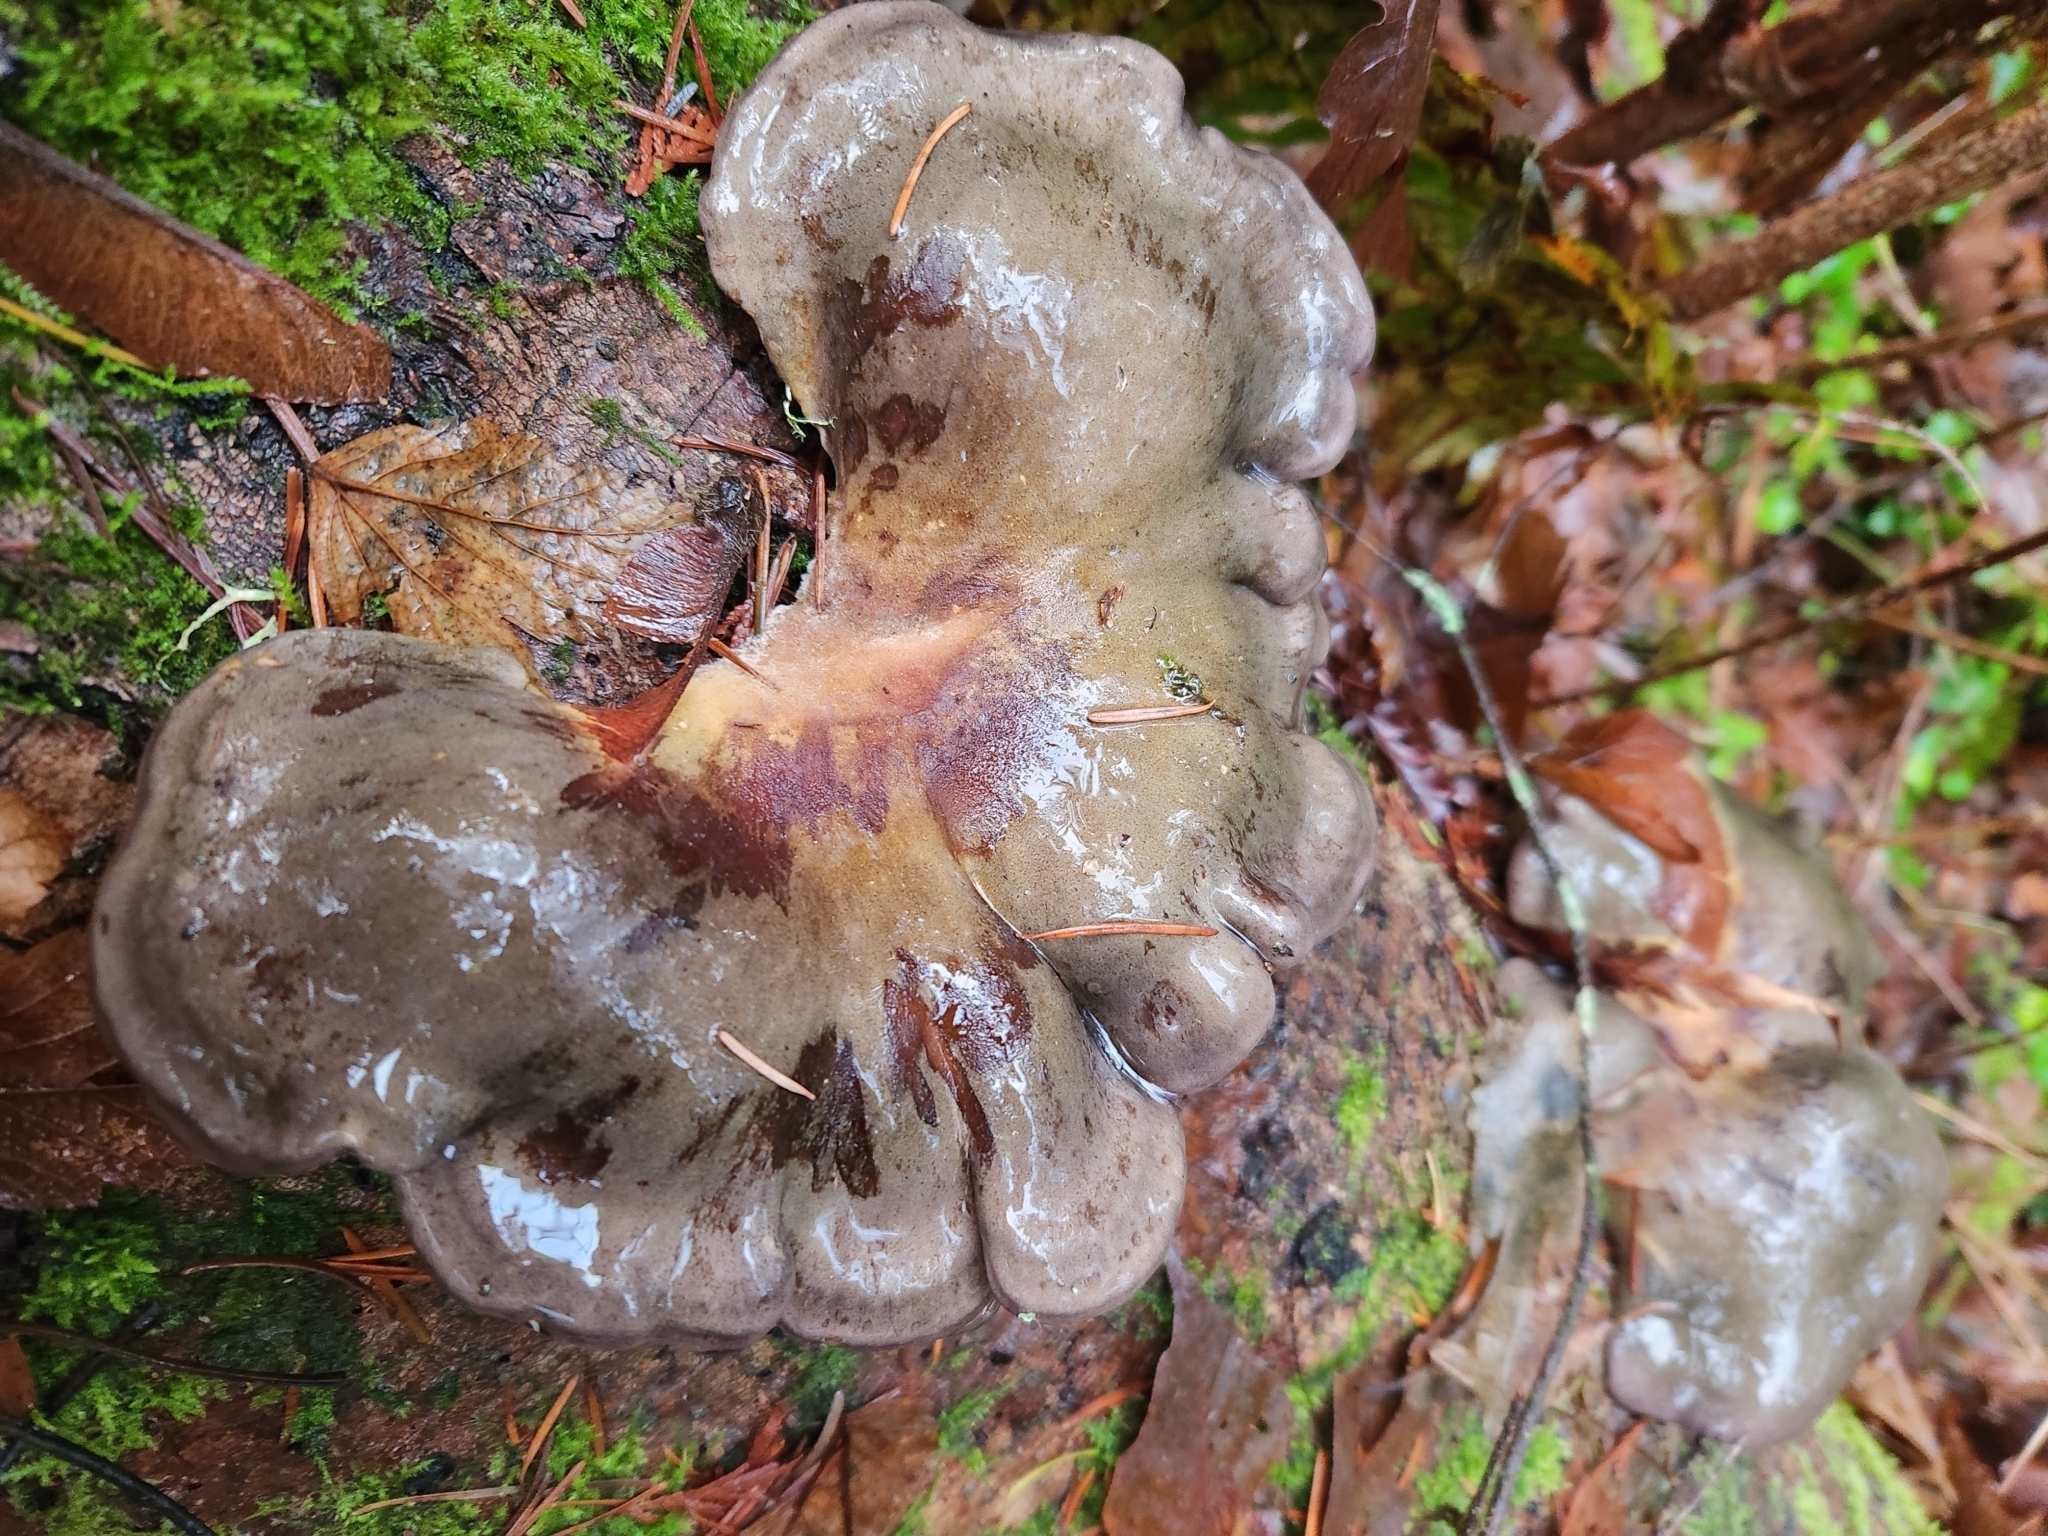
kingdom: Fungi
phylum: Basidiomycota
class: Agaricomycetes
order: Agaricales
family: Sarcomyxaceae
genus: Sarcomyxa
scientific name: Sarcomyxa serotina
